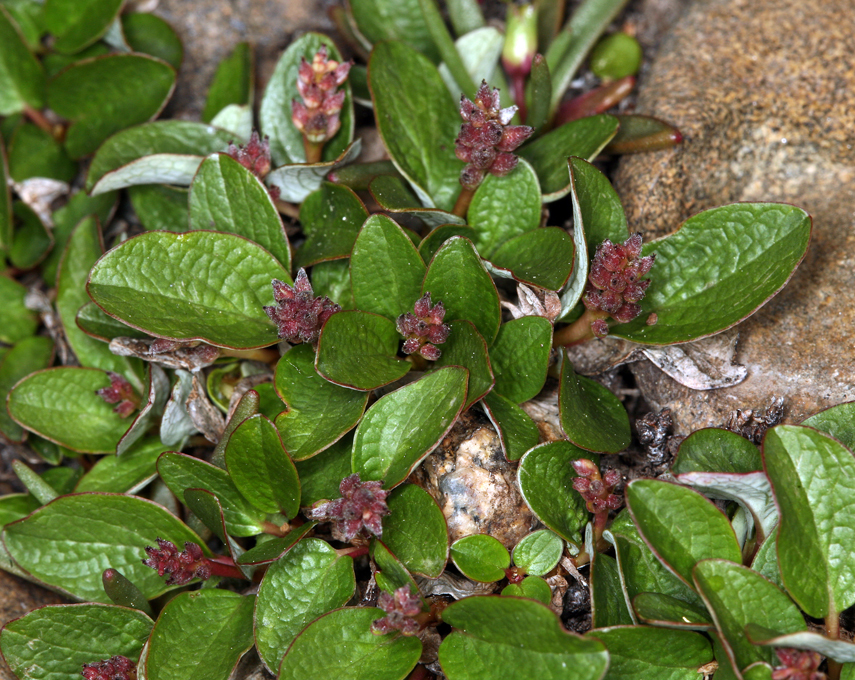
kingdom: Plantae
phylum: Tracheophyta
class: Magnoliopsida
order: Malpighiales
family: Salicaceae
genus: Salix
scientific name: Salix nivalis
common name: Dwarf snow willow
